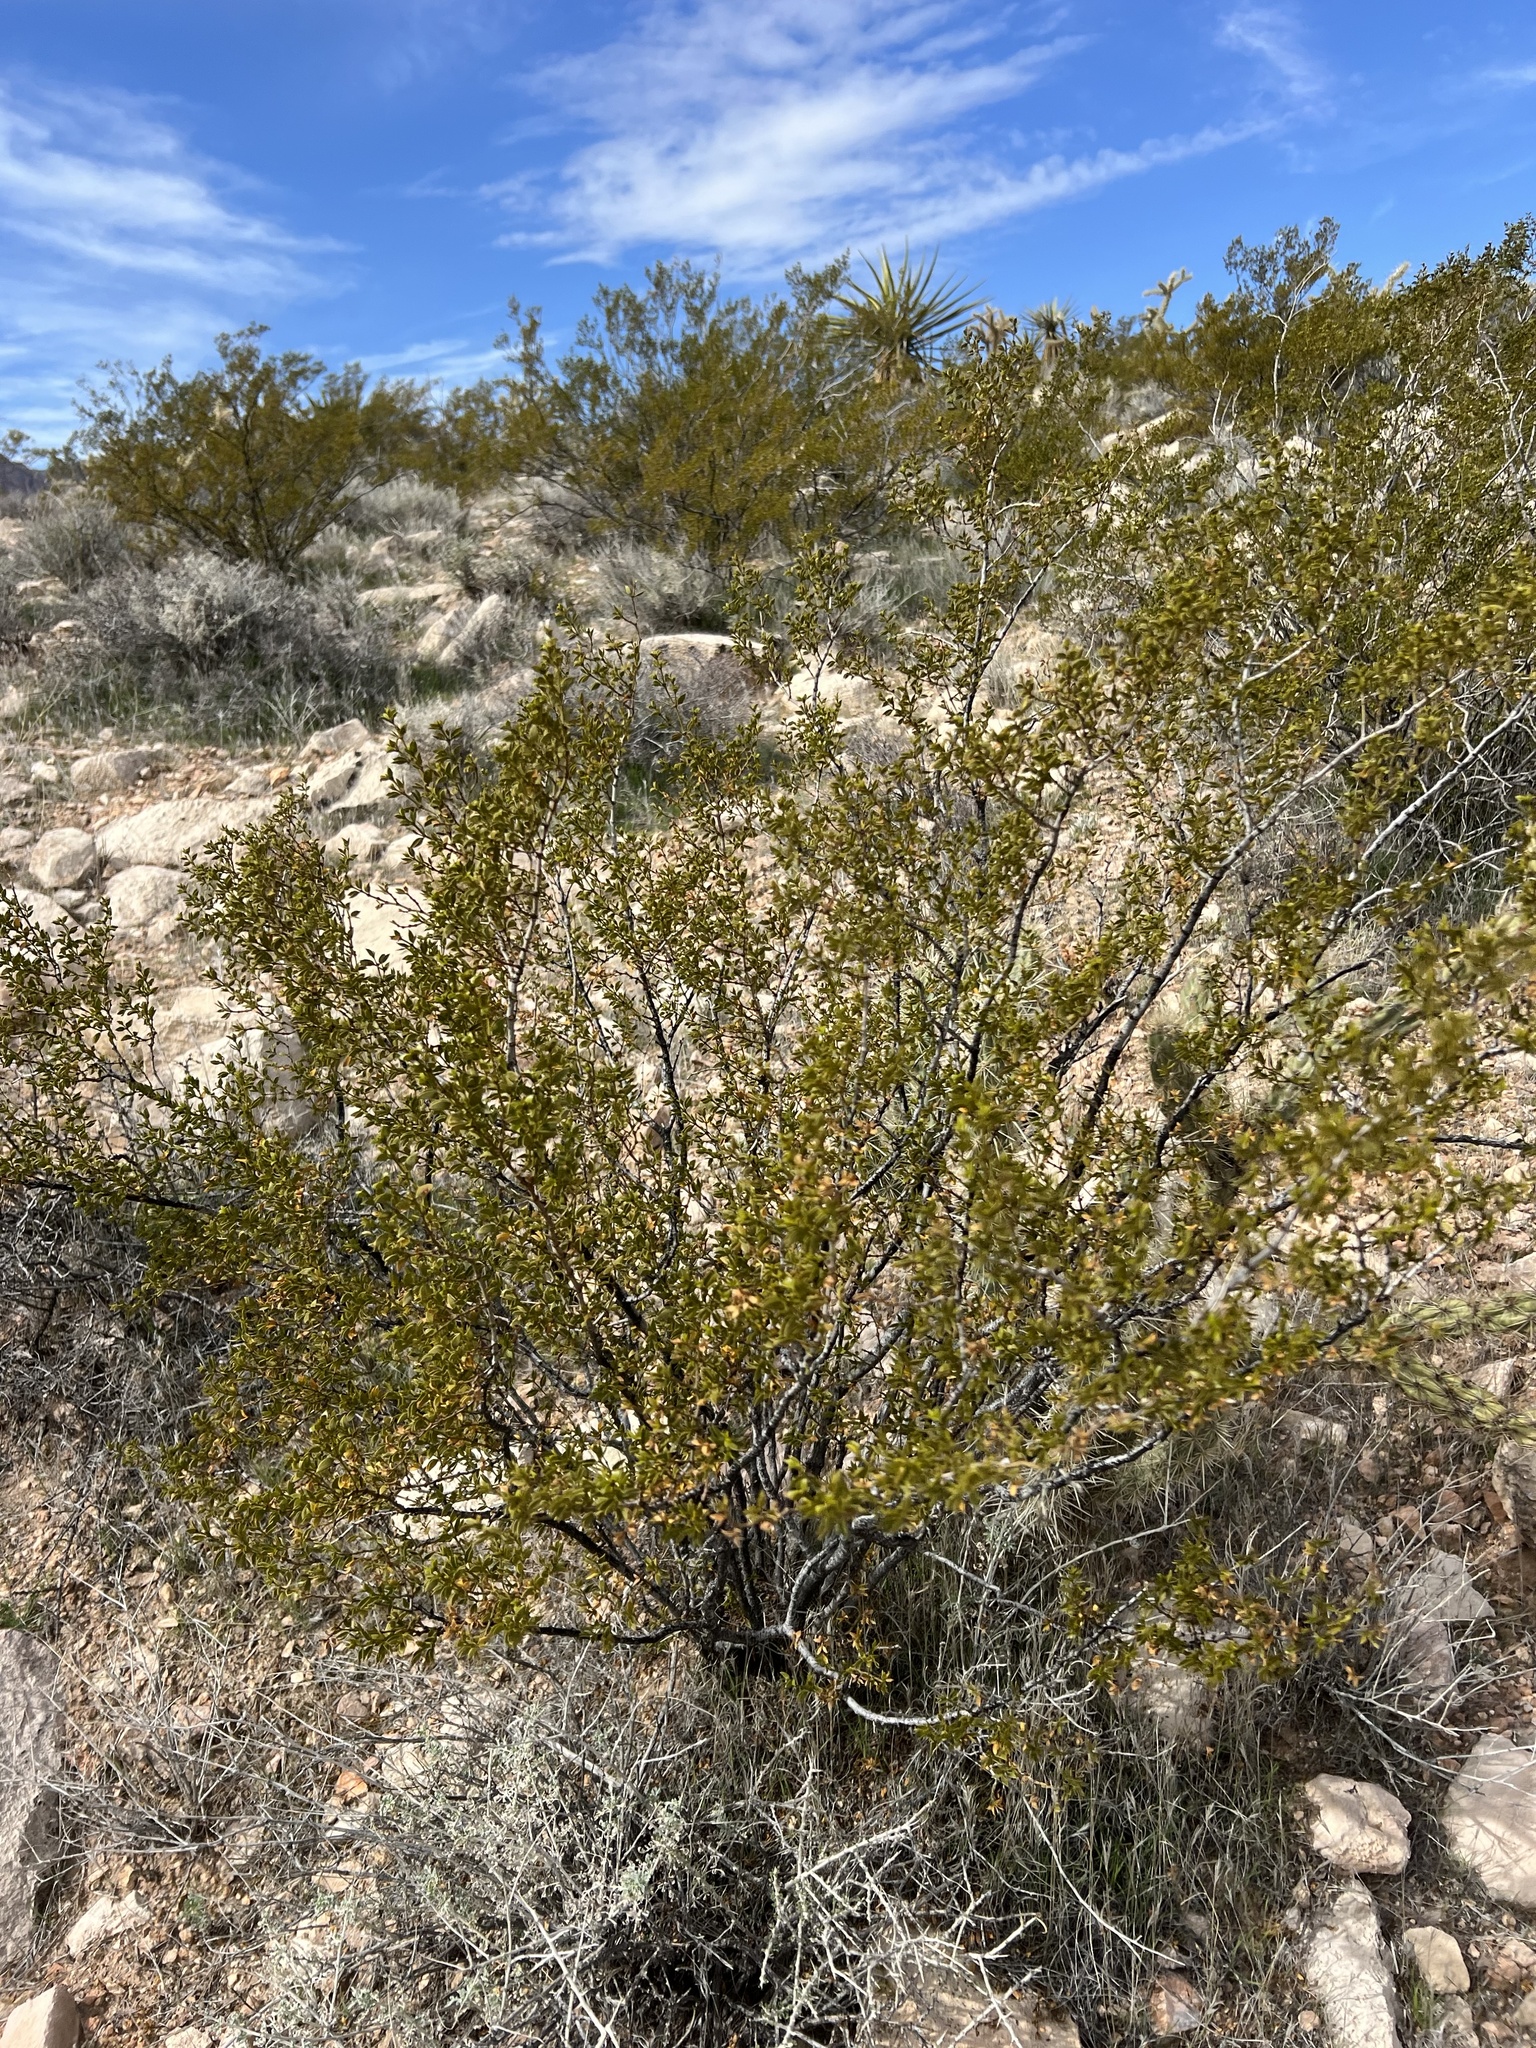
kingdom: Plantae
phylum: Tracheophyta
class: Magnoliopsida
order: Zygophyllales
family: Zygophyllaceae
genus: Larrea
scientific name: Larrea tridentata
